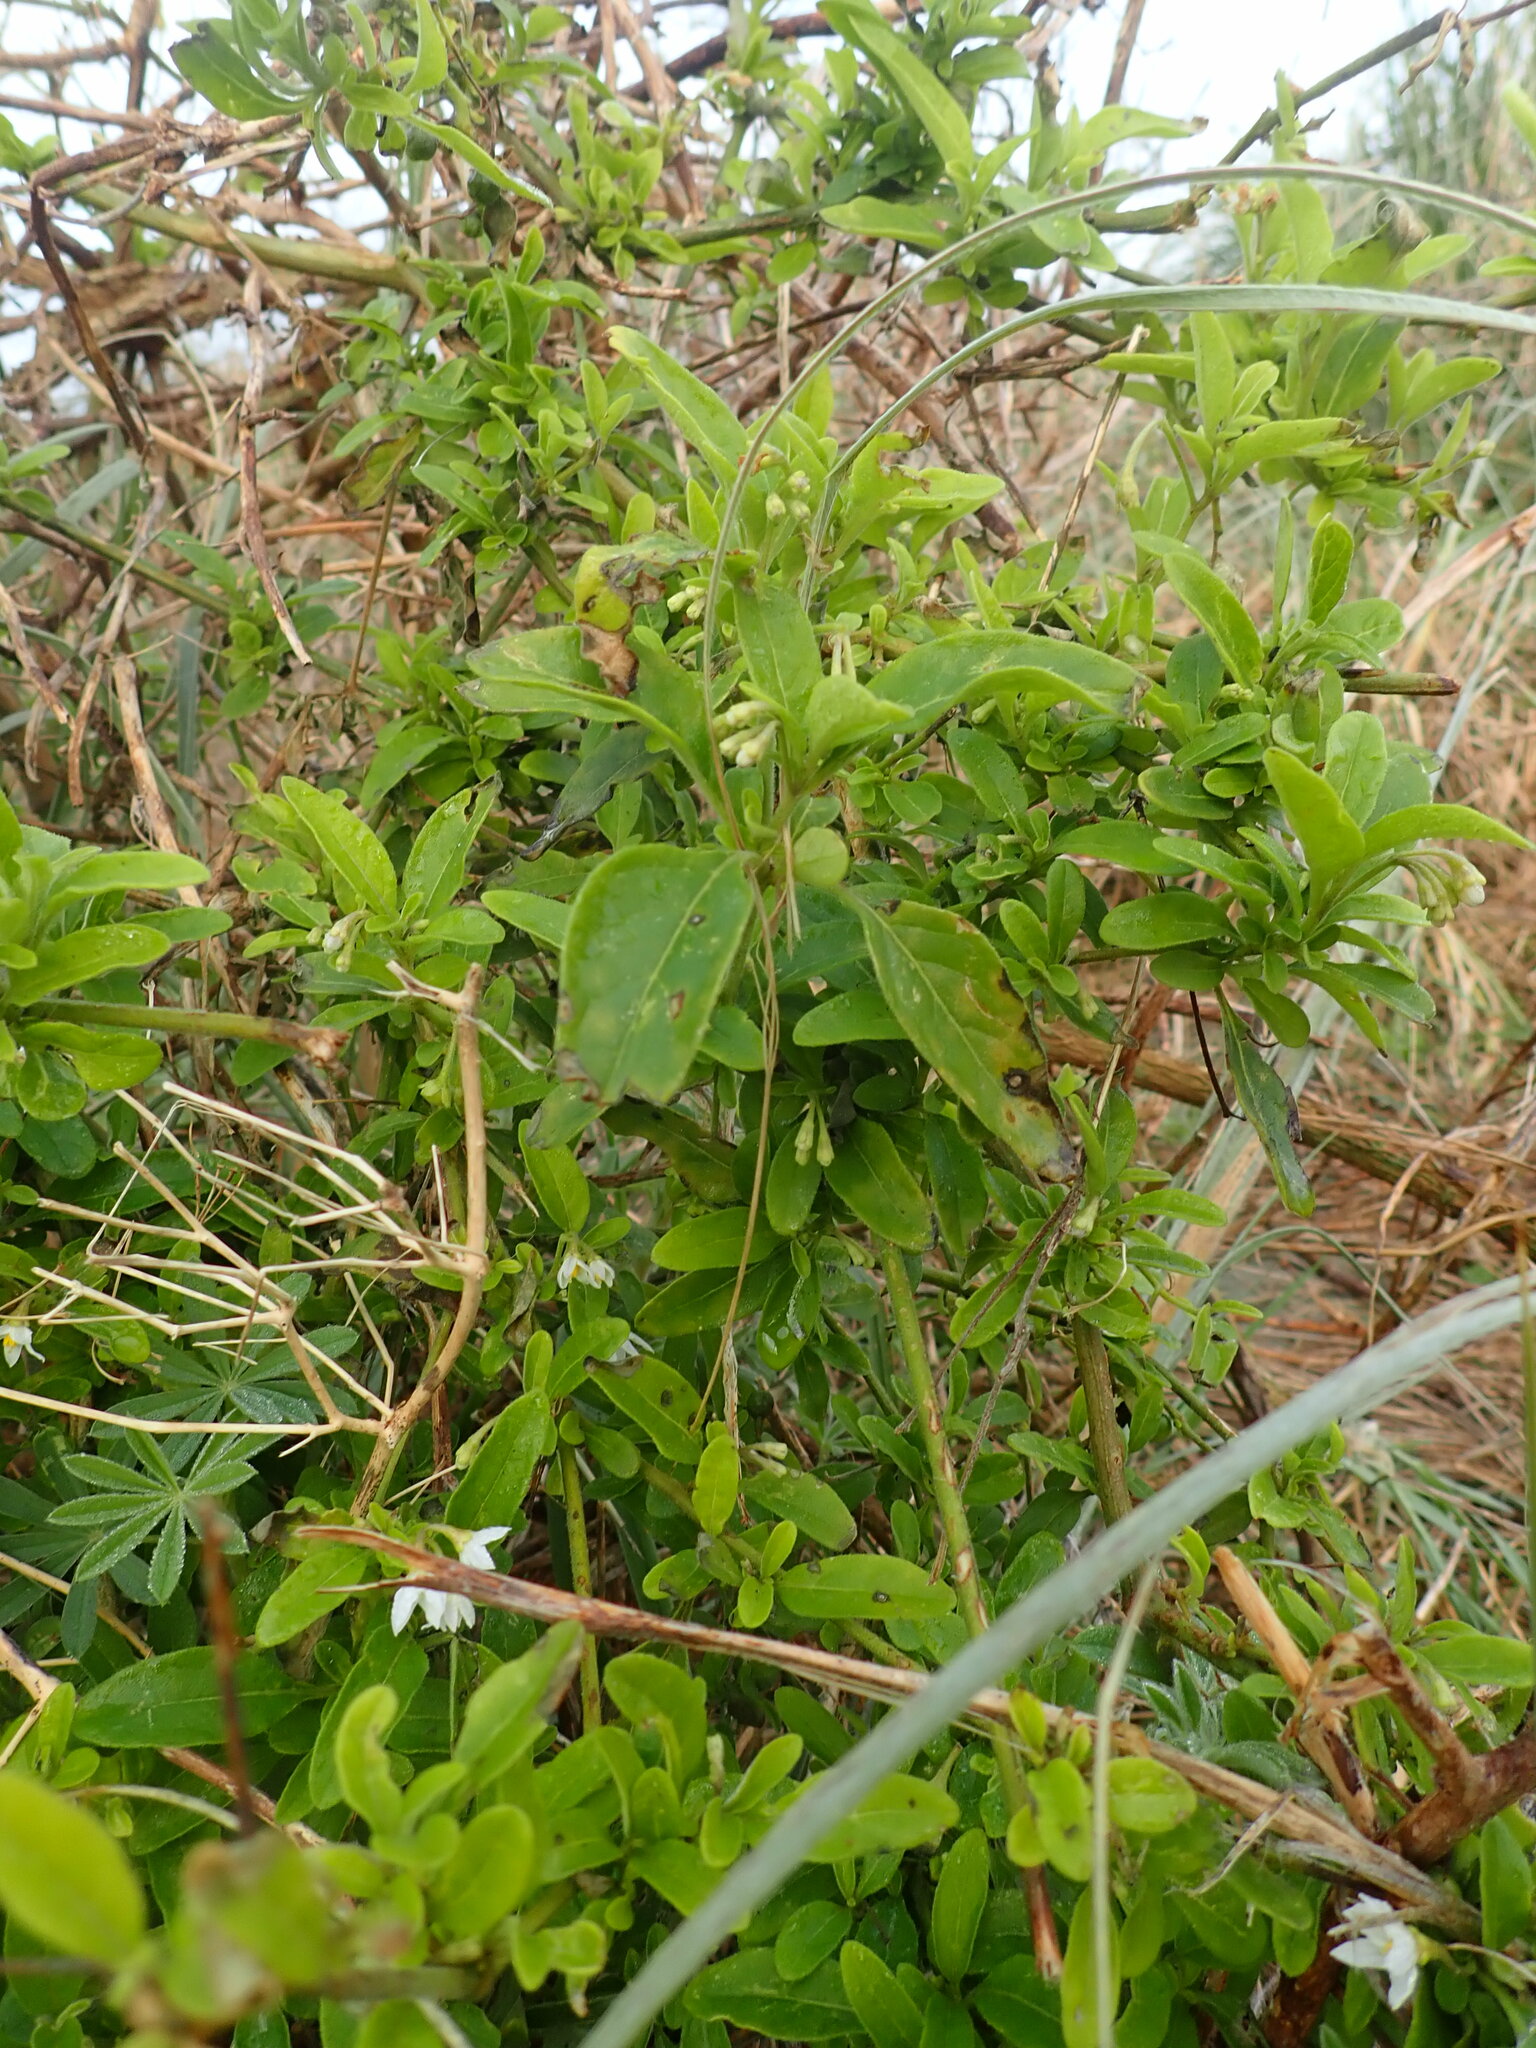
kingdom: Plantae
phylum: Tracheophyta
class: Magnoliopsida
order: Solanales
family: Solanaceae
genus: Solanum
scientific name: Solanum chenopodioides
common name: Tall nightshade
